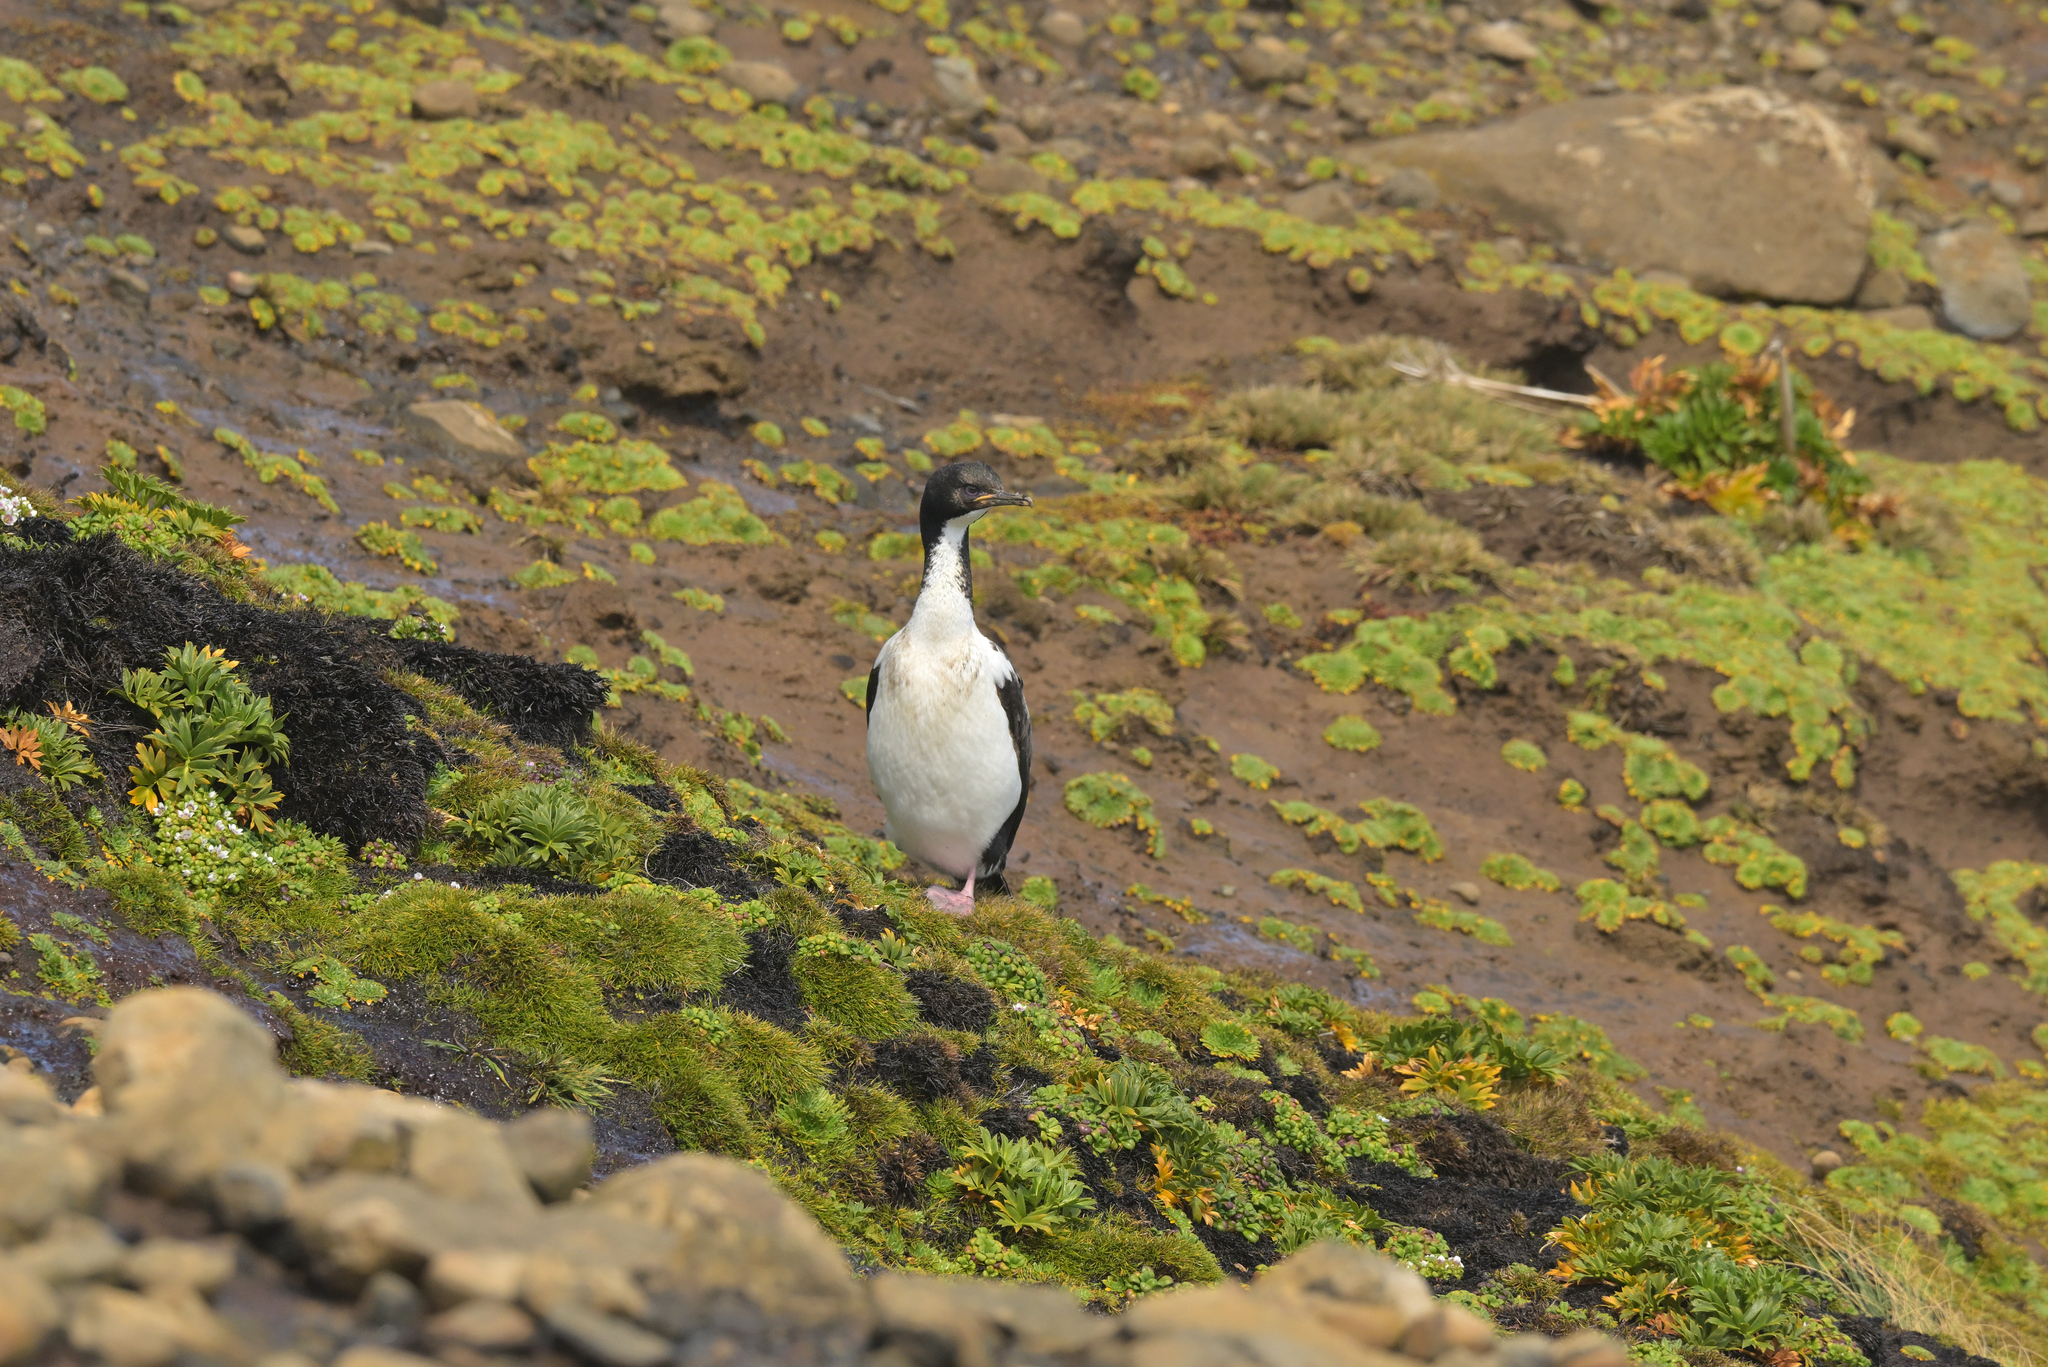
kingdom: Animalia
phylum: Chordata
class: Aves
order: Suliformes
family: Phalacrocoracidae
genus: Leucocarbo
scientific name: Leucocarbo colensoi
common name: Auckland shag
